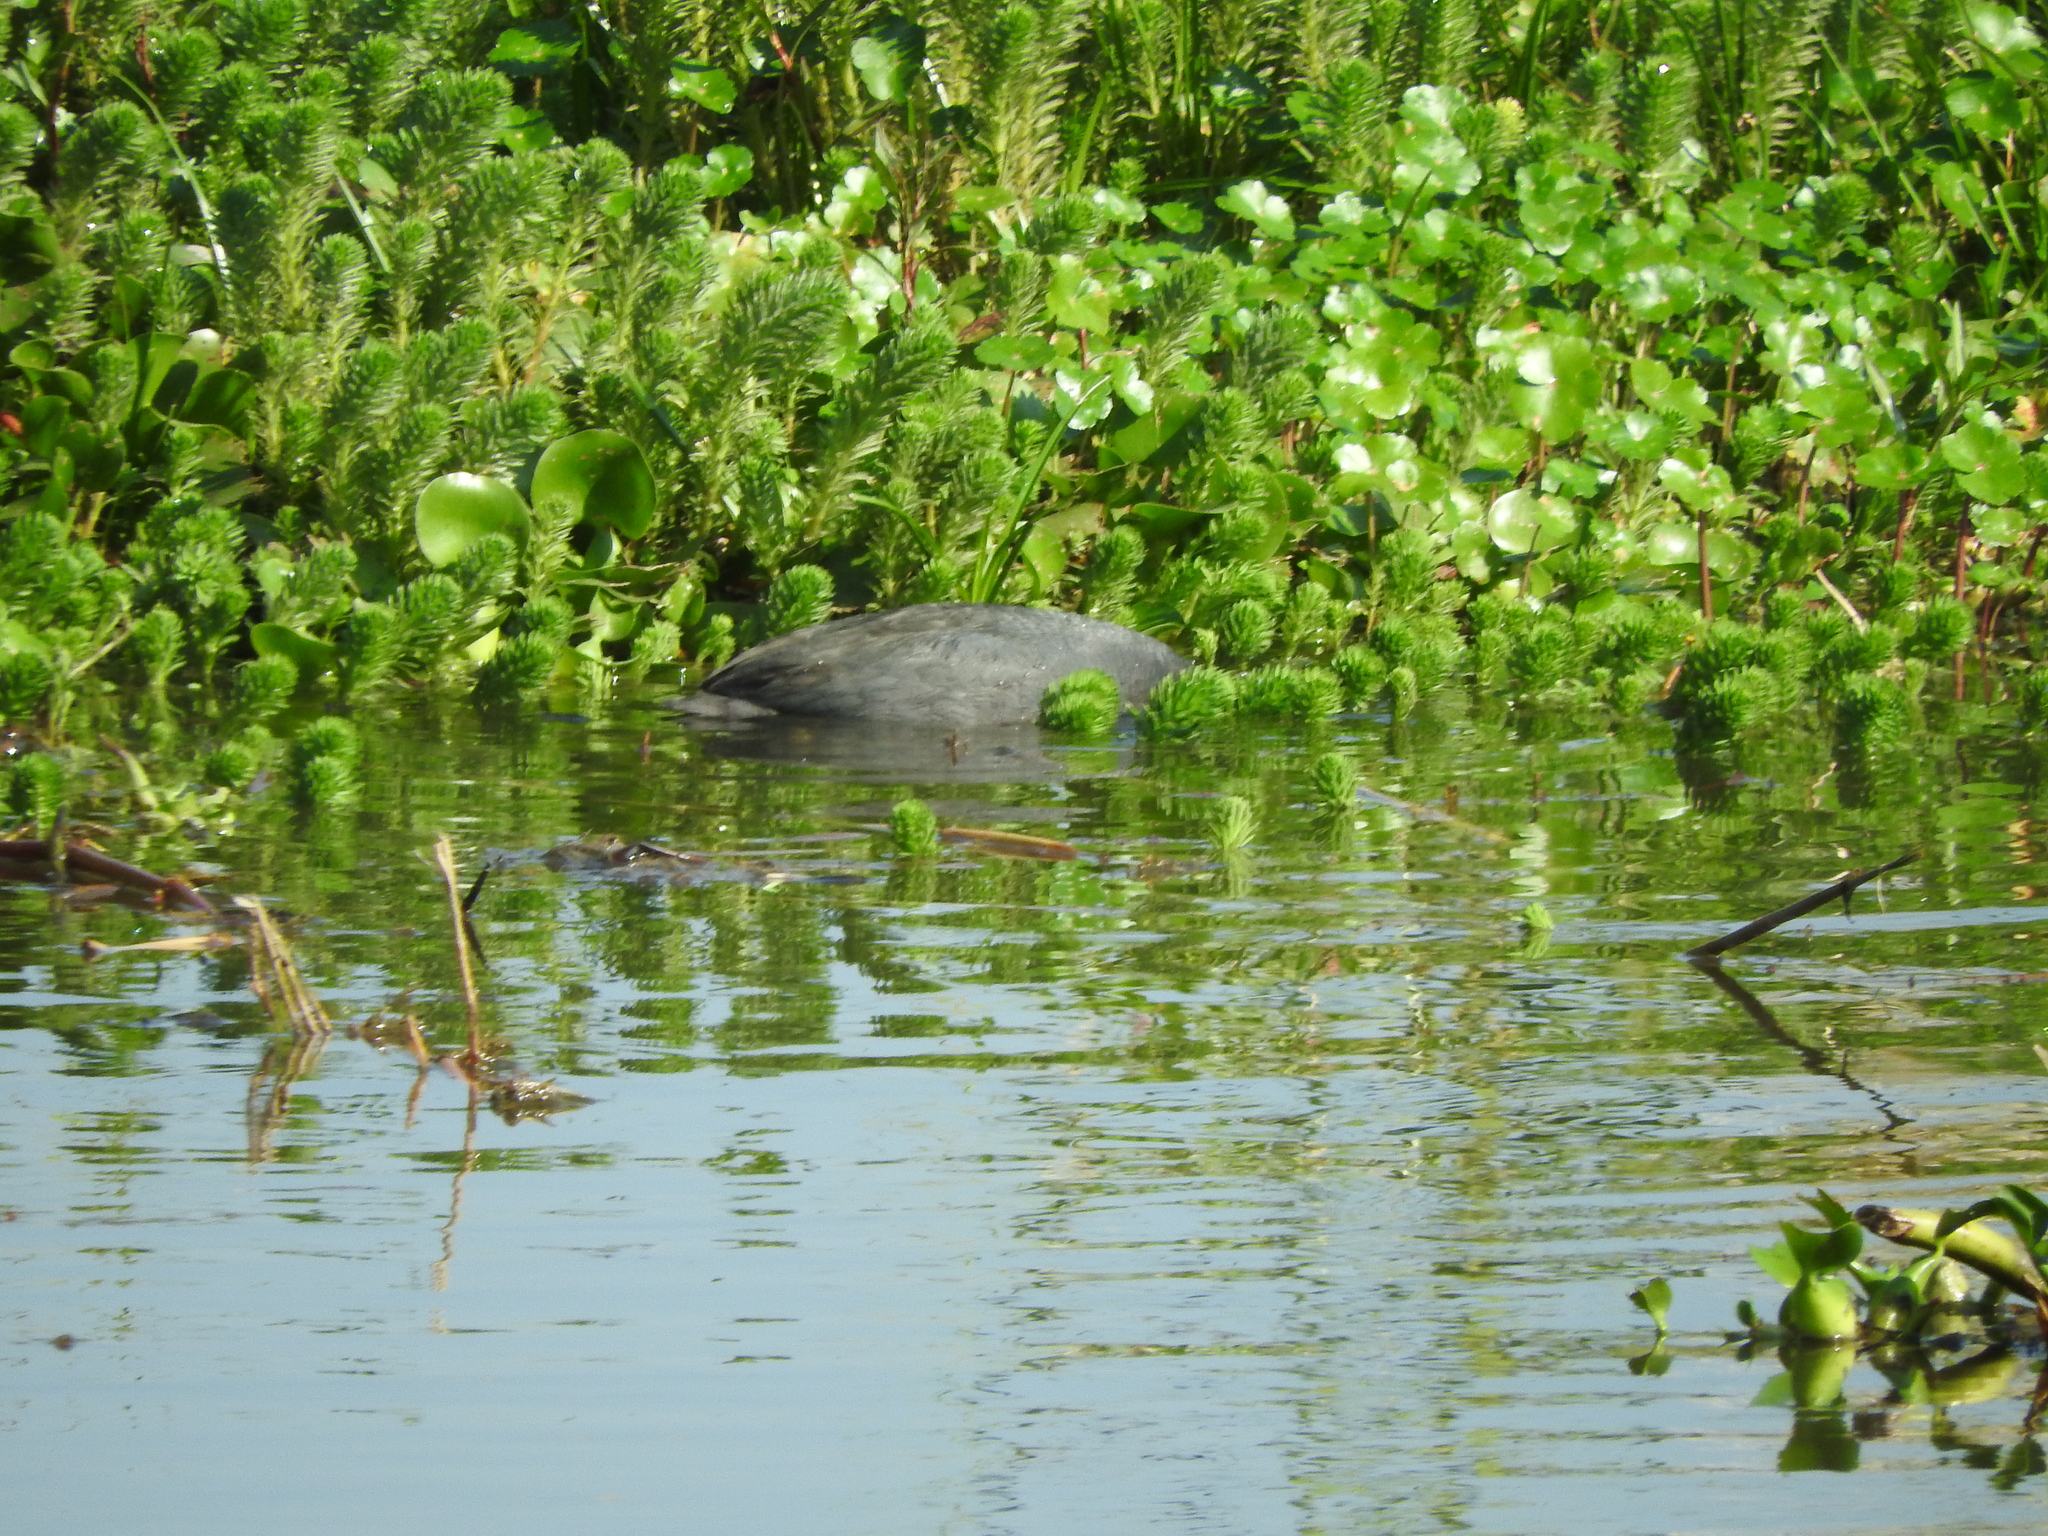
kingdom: Animalia
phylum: Chordata
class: Aves
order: Pelecaniformes
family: Ardeidae
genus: Egretta
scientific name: Egretta tricolor
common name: Tricolored heron
